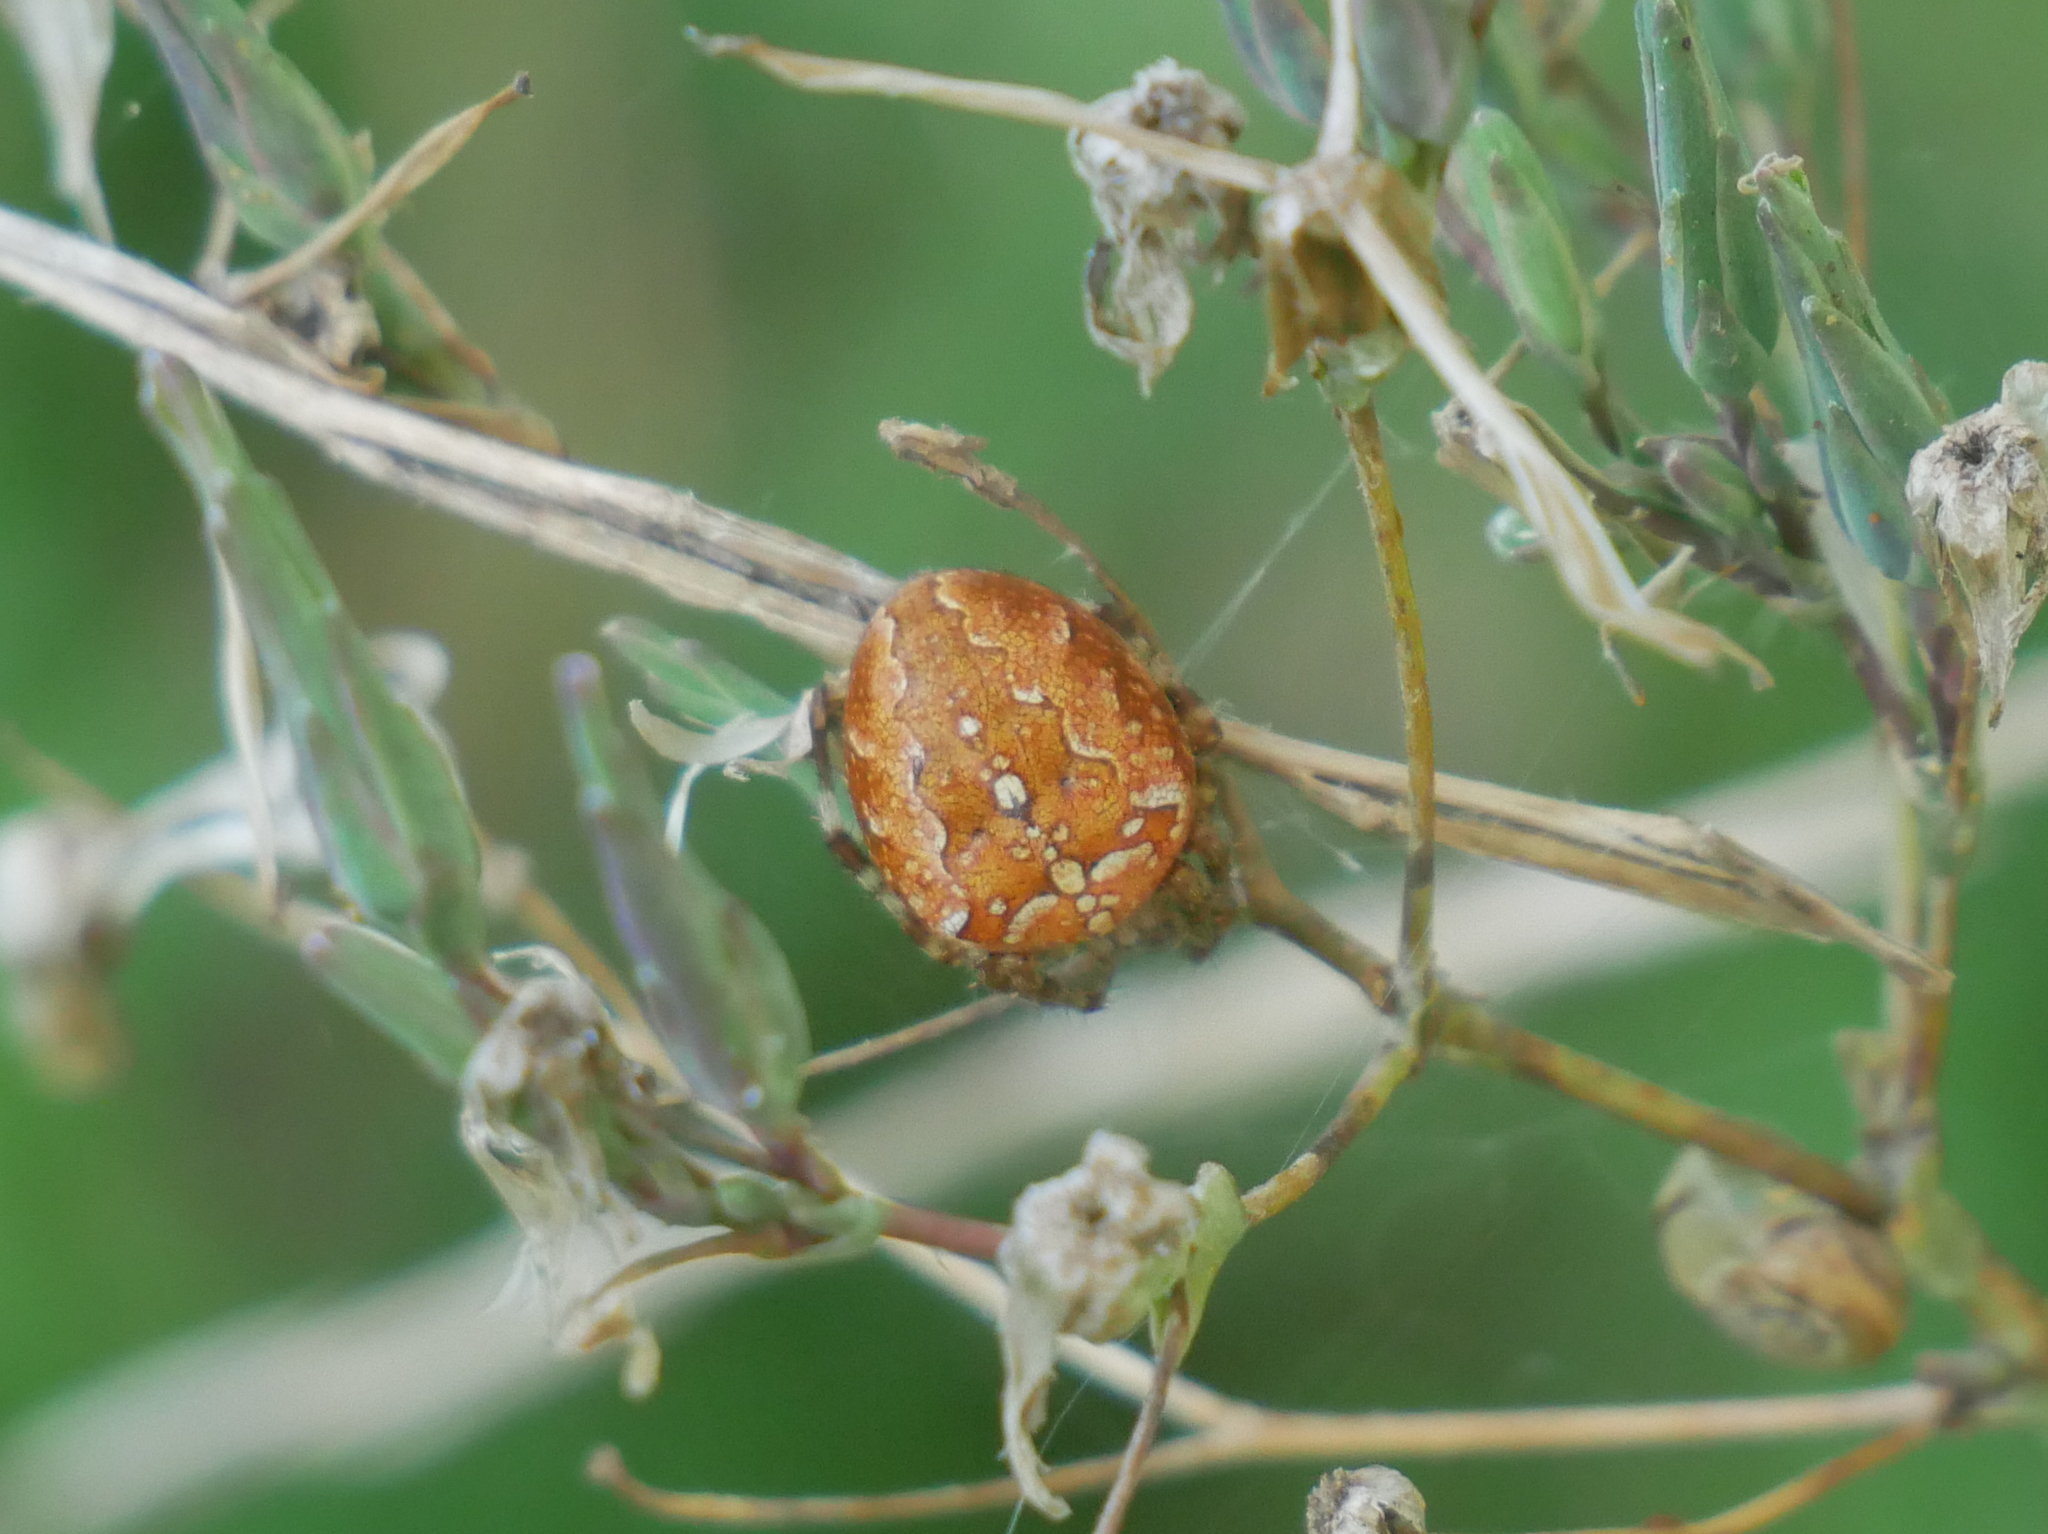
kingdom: Animalia
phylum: Arthropoda
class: Arachnida
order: Araneae
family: Araneidae
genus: Araneus
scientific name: Araneus diadematus
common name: Cross orbweaver
